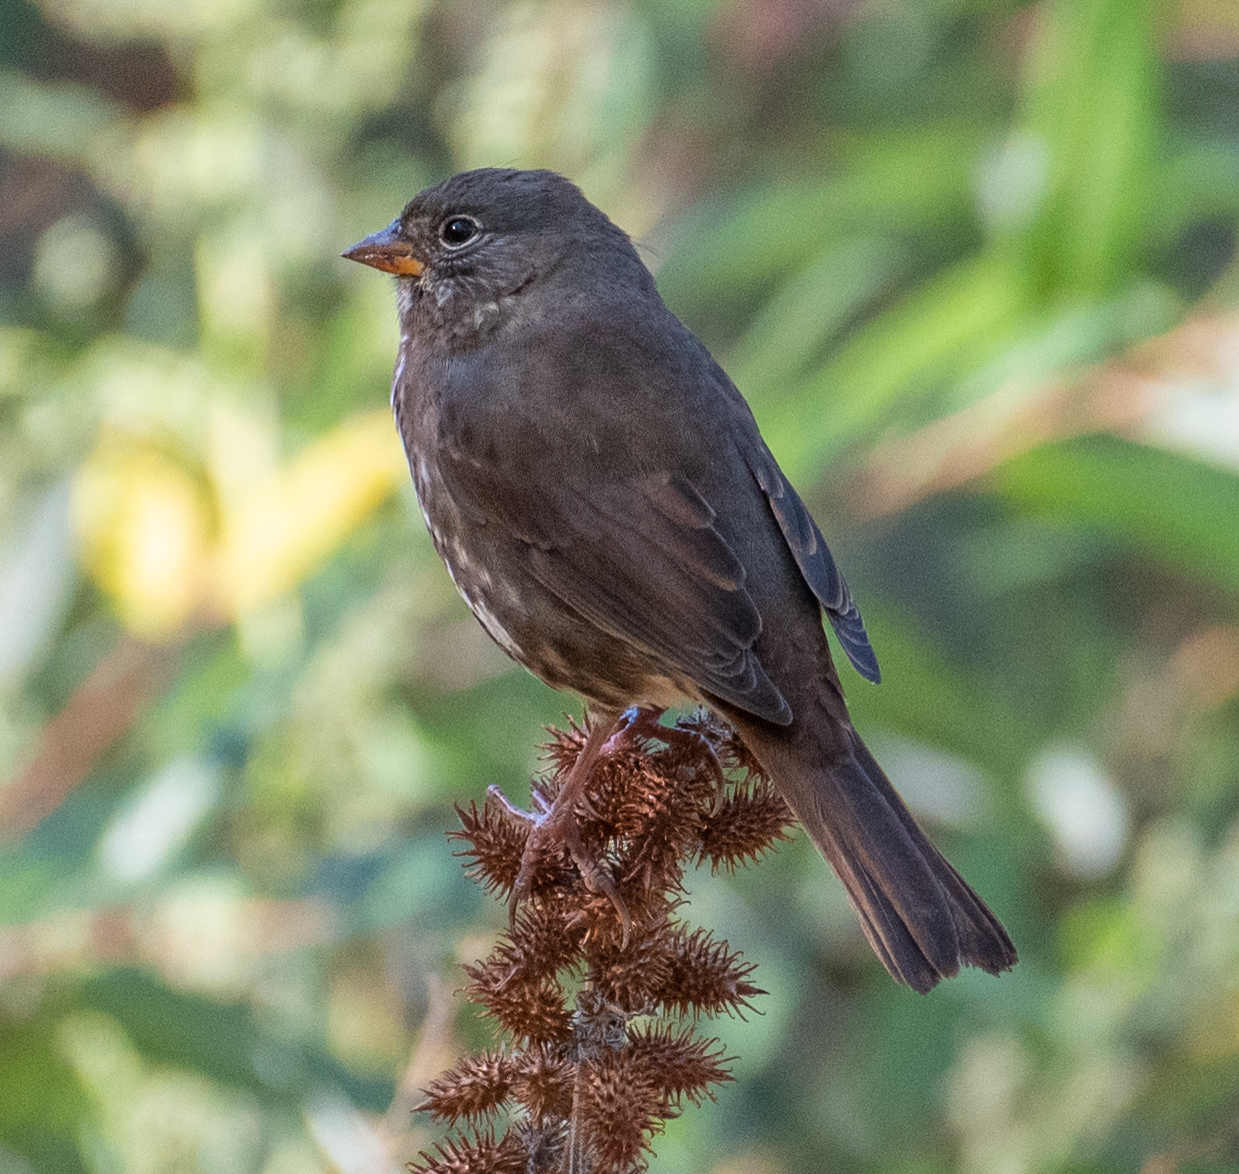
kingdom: Animalia
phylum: Chordata
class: Aves
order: Passeriformes
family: Passerellidae
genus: Passerella
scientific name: Passerella iliaca
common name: Fox sparrow
